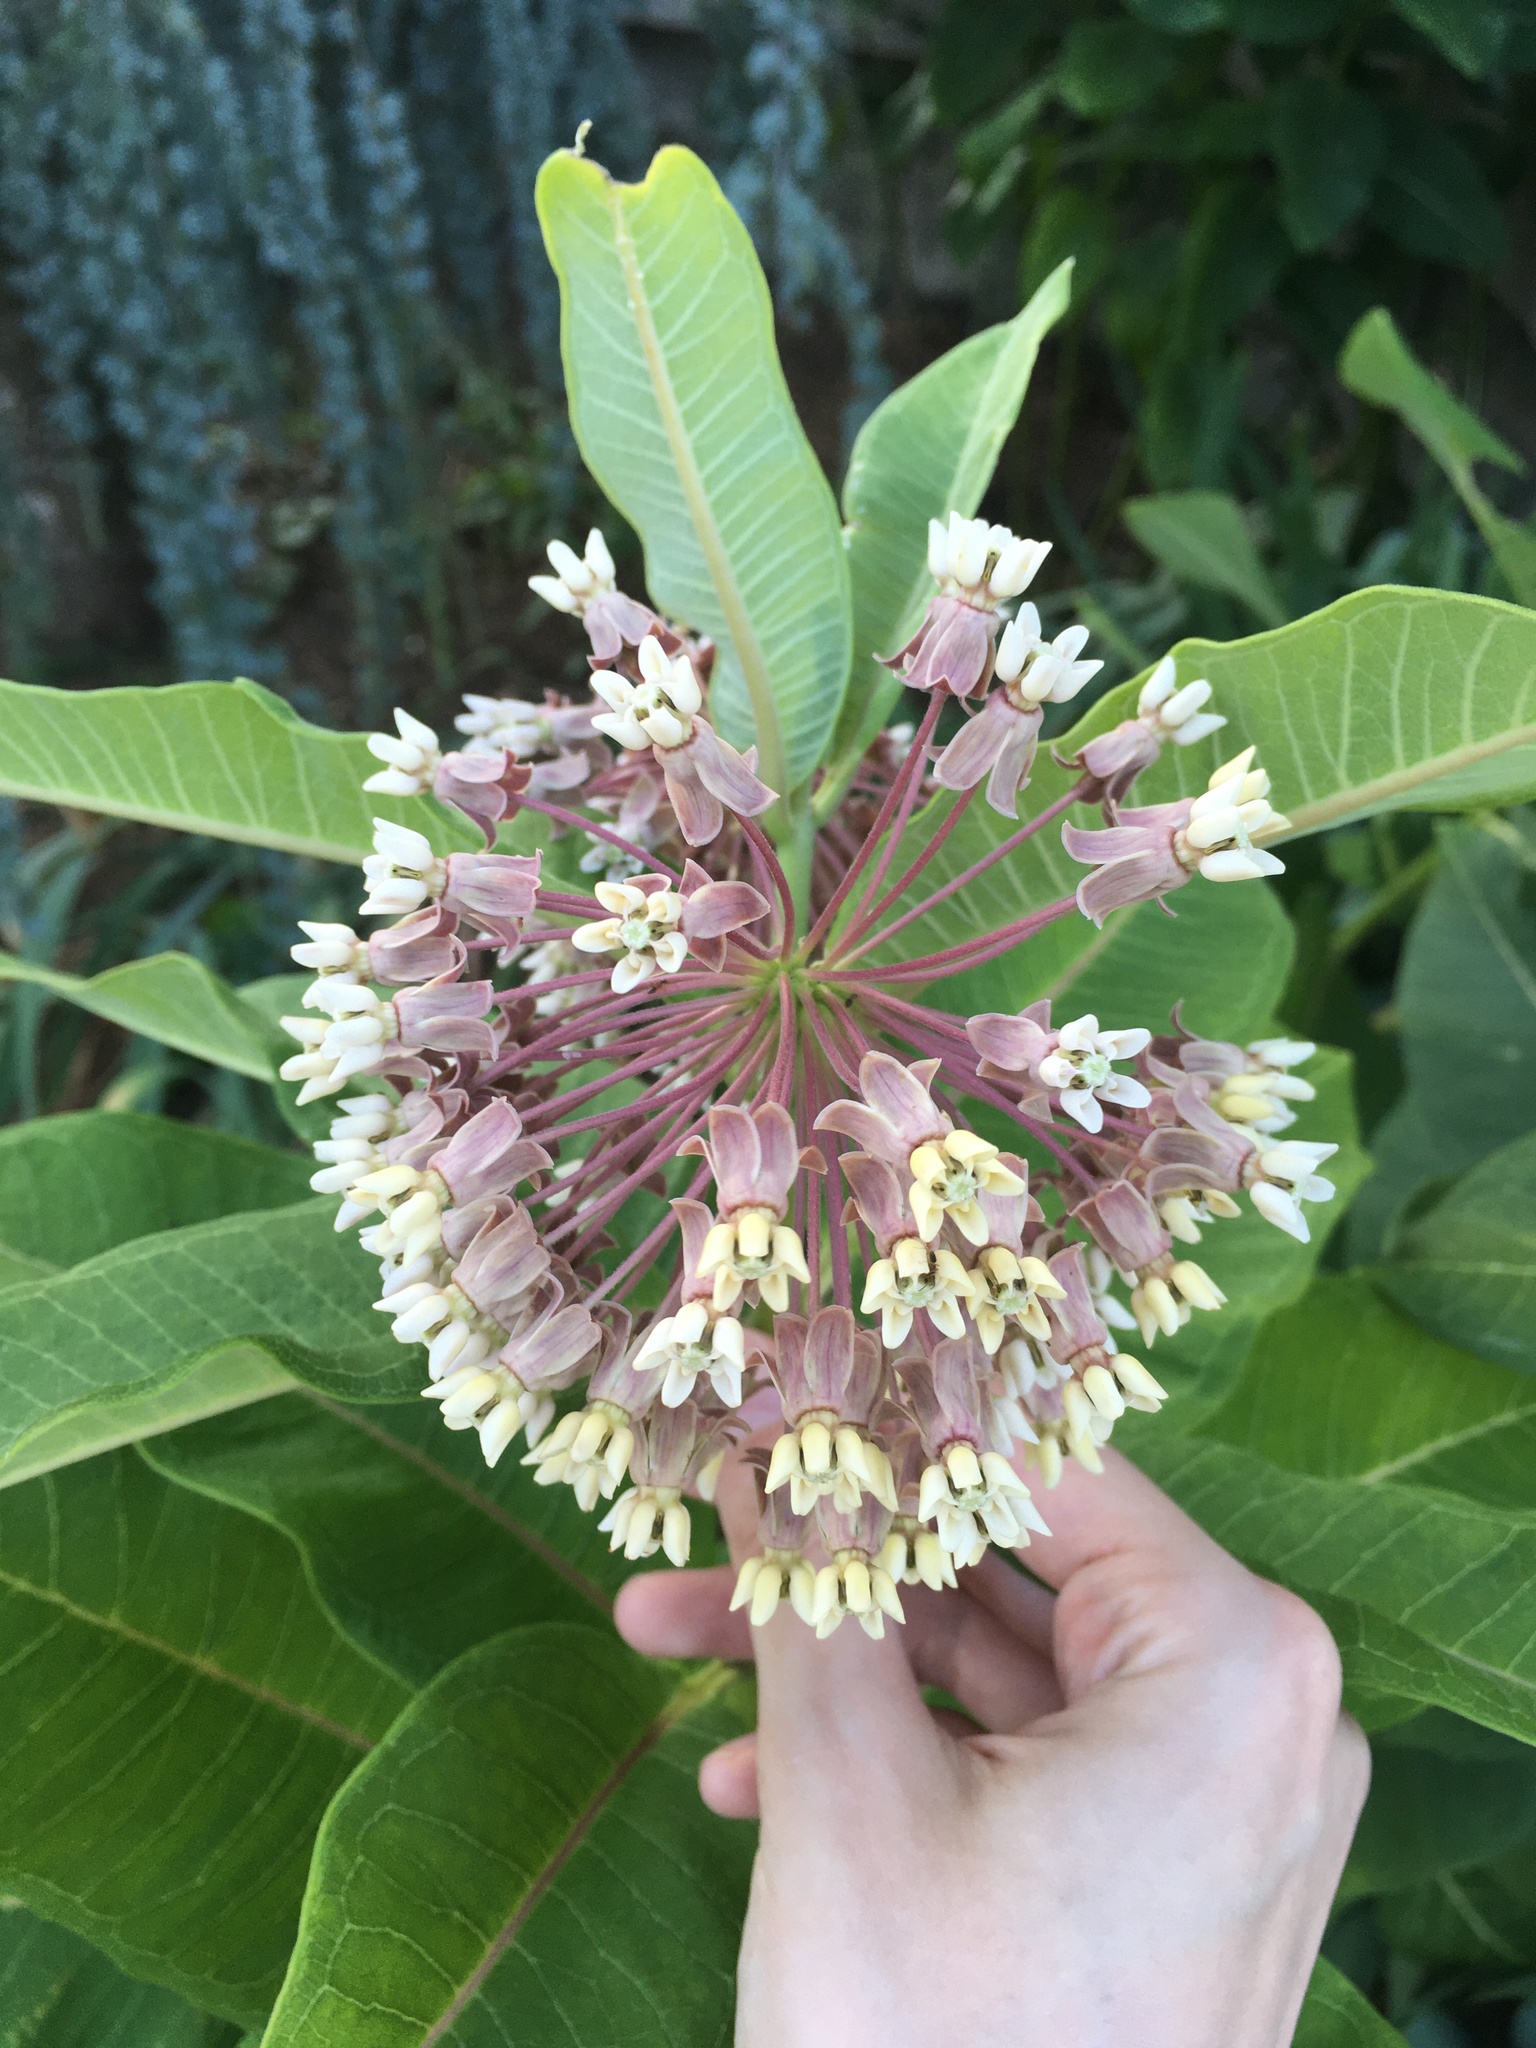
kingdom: Plantae
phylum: Tracheophyta
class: Magnoliopsida
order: Gentianales
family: Apocynaceae
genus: Asclepias
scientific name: Asclepias syriaca
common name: Common milkweed
